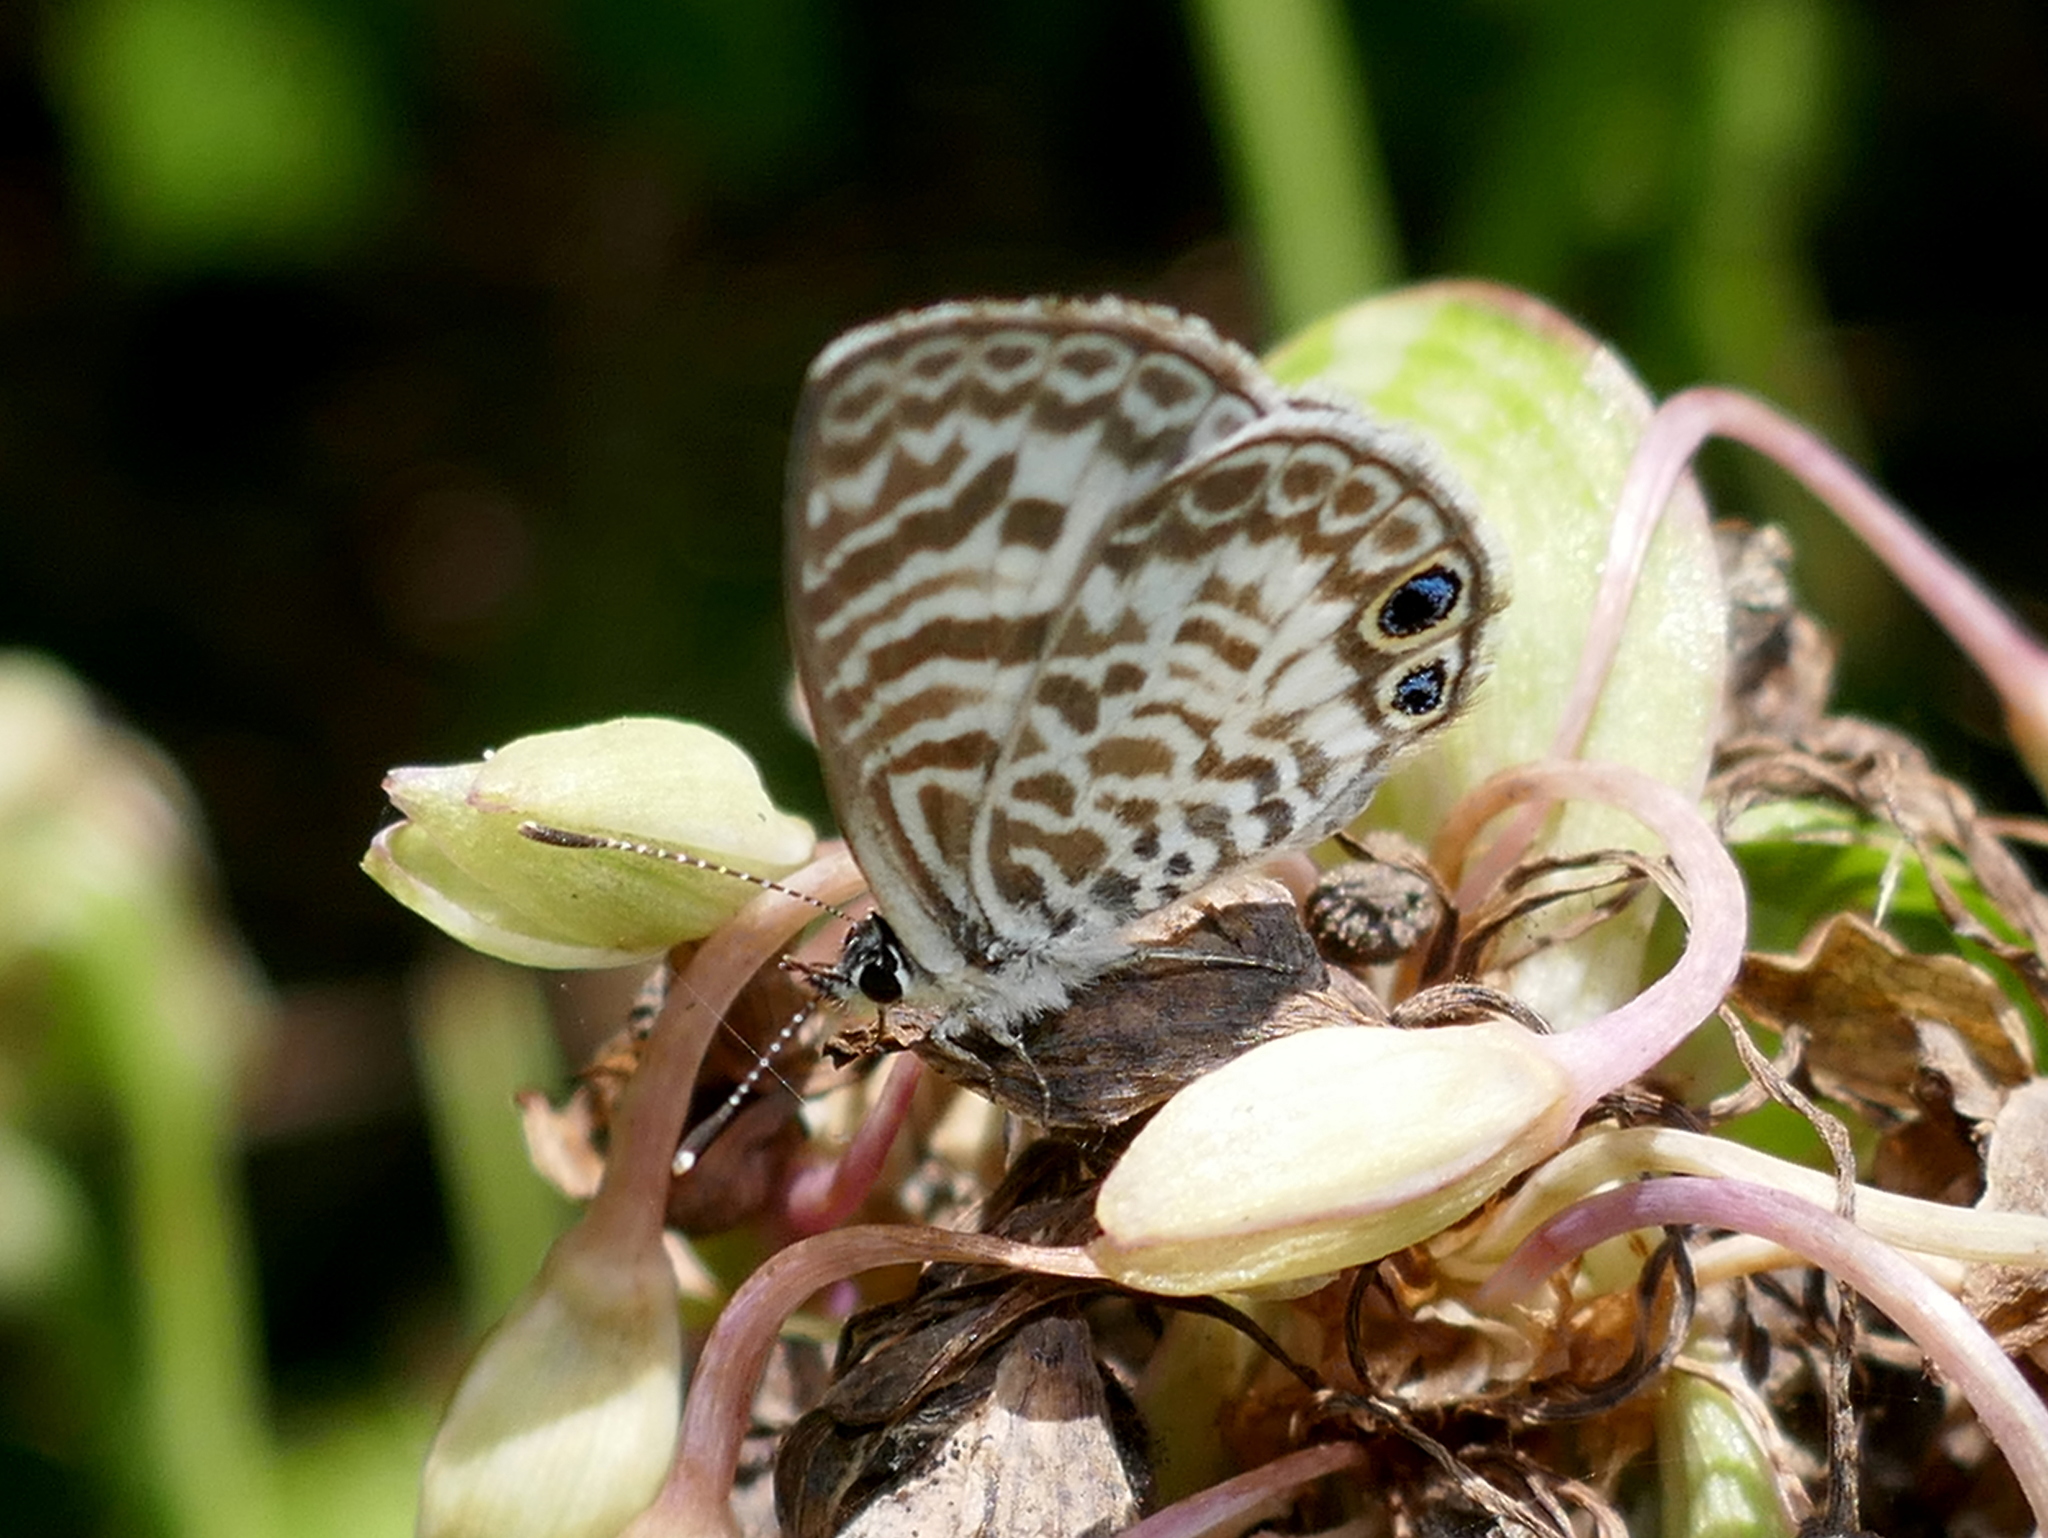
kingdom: Animalia
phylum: Arthropoda
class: Insecta
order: Lepidoptera
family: Lycaenidae
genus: Leptotes
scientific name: Leptotes cassius
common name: Cassius blue
